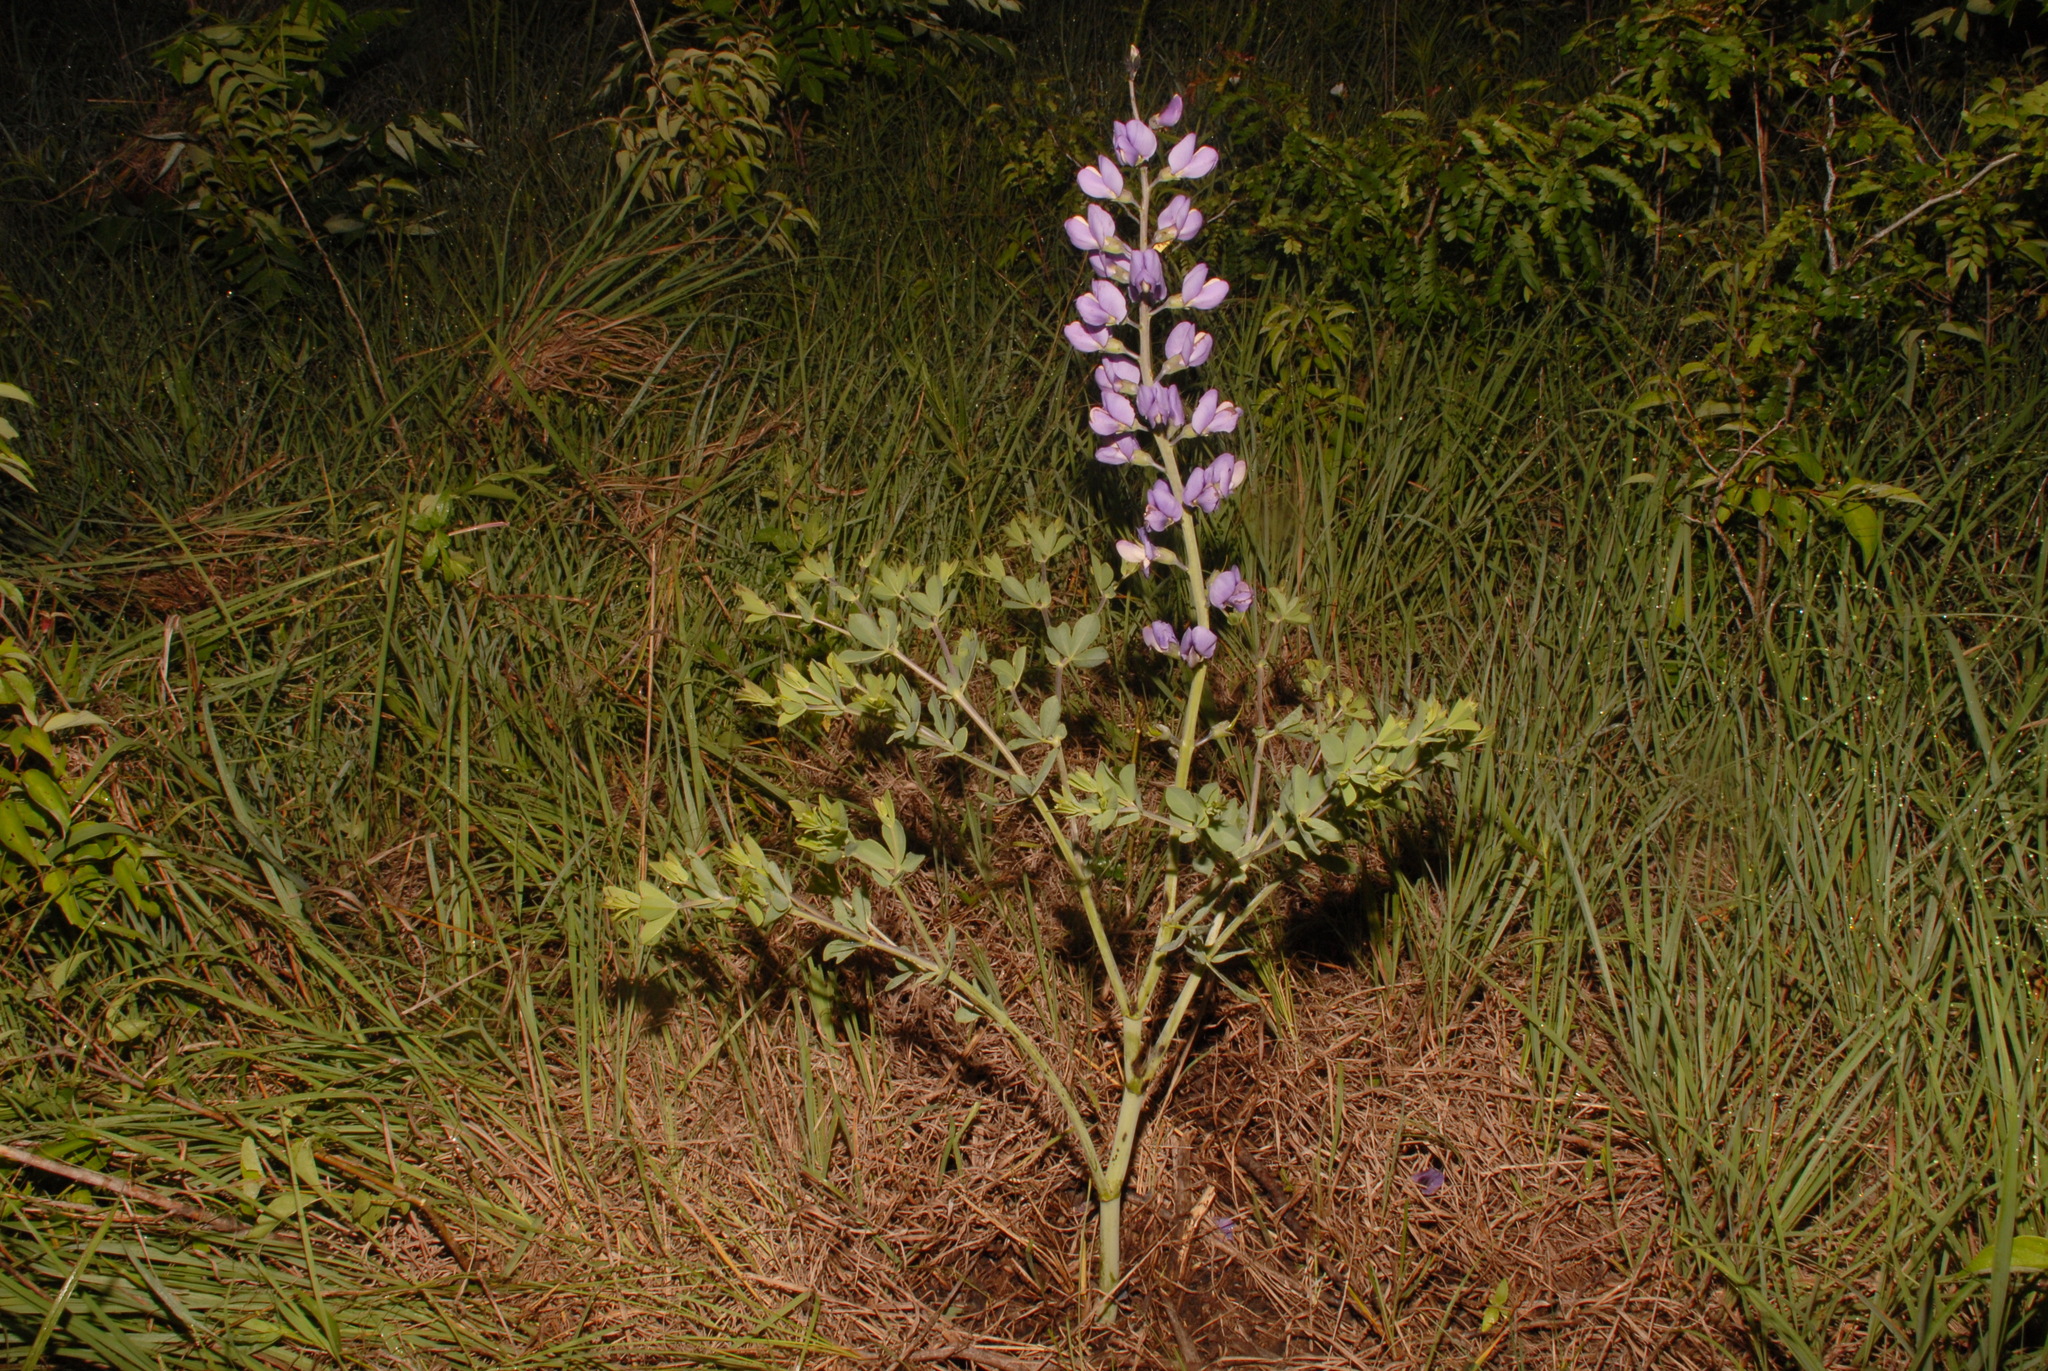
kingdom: Plantae
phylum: Tracheophyta
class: Magnoliopsida
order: Fabales
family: Fabaceae
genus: Baptisia
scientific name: Baptisia australis
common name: Blue false indigo
